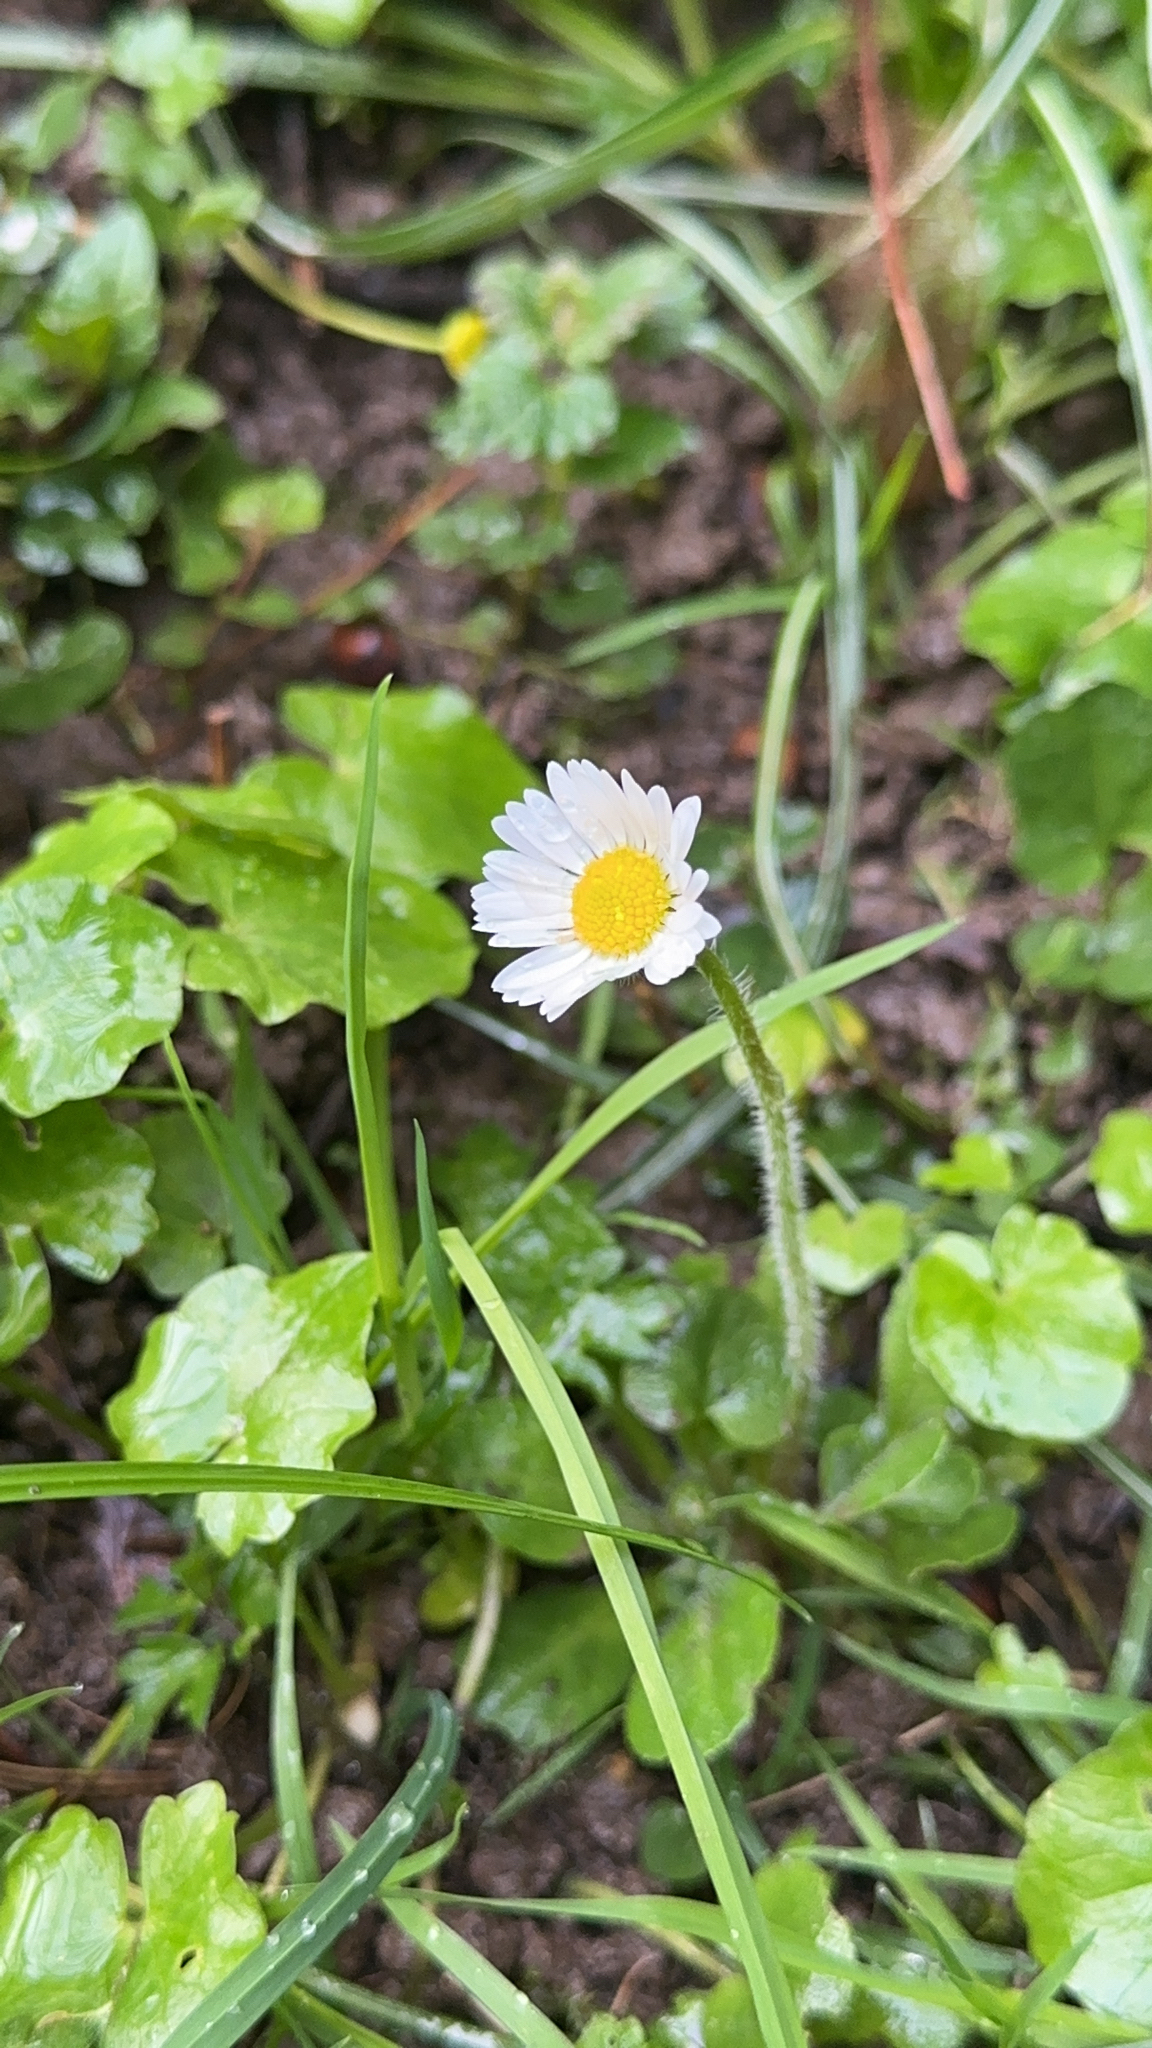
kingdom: Plantae
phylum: Tracheophyta
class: Magnoliopsida
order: Asterales
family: Asteraceae
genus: Bellis
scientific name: Bellis perennis
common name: Lawndaisy
